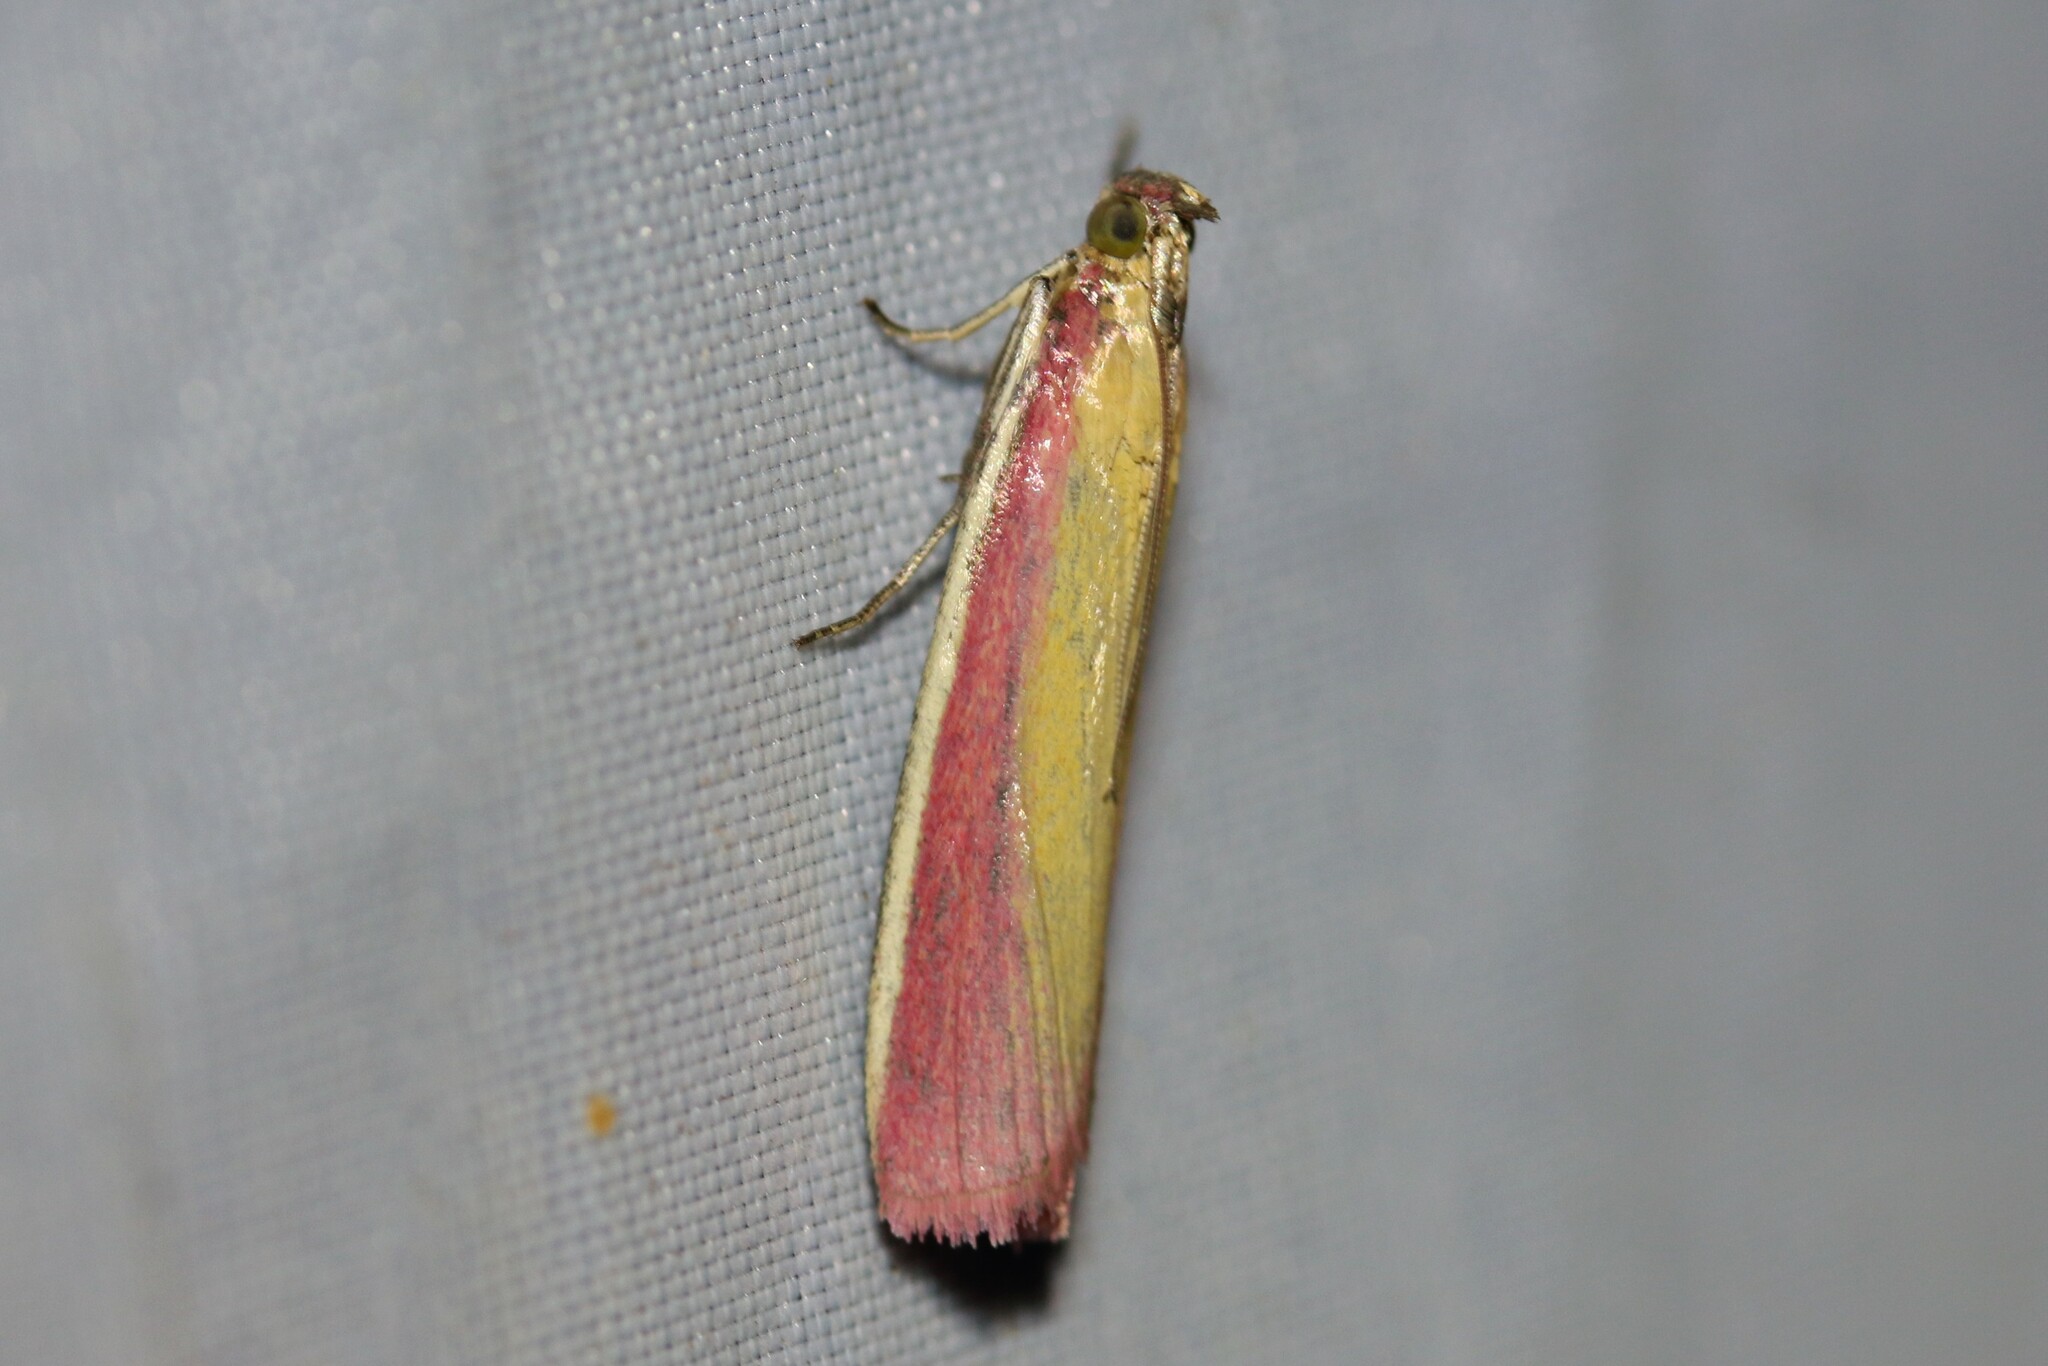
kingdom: Animalia
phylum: Arthropoda
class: Insecta
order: Lepidoptera
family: Pyralidae
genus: Oncocera
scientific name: Oncocera semirubella
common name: Rosy-striped knot-horn
